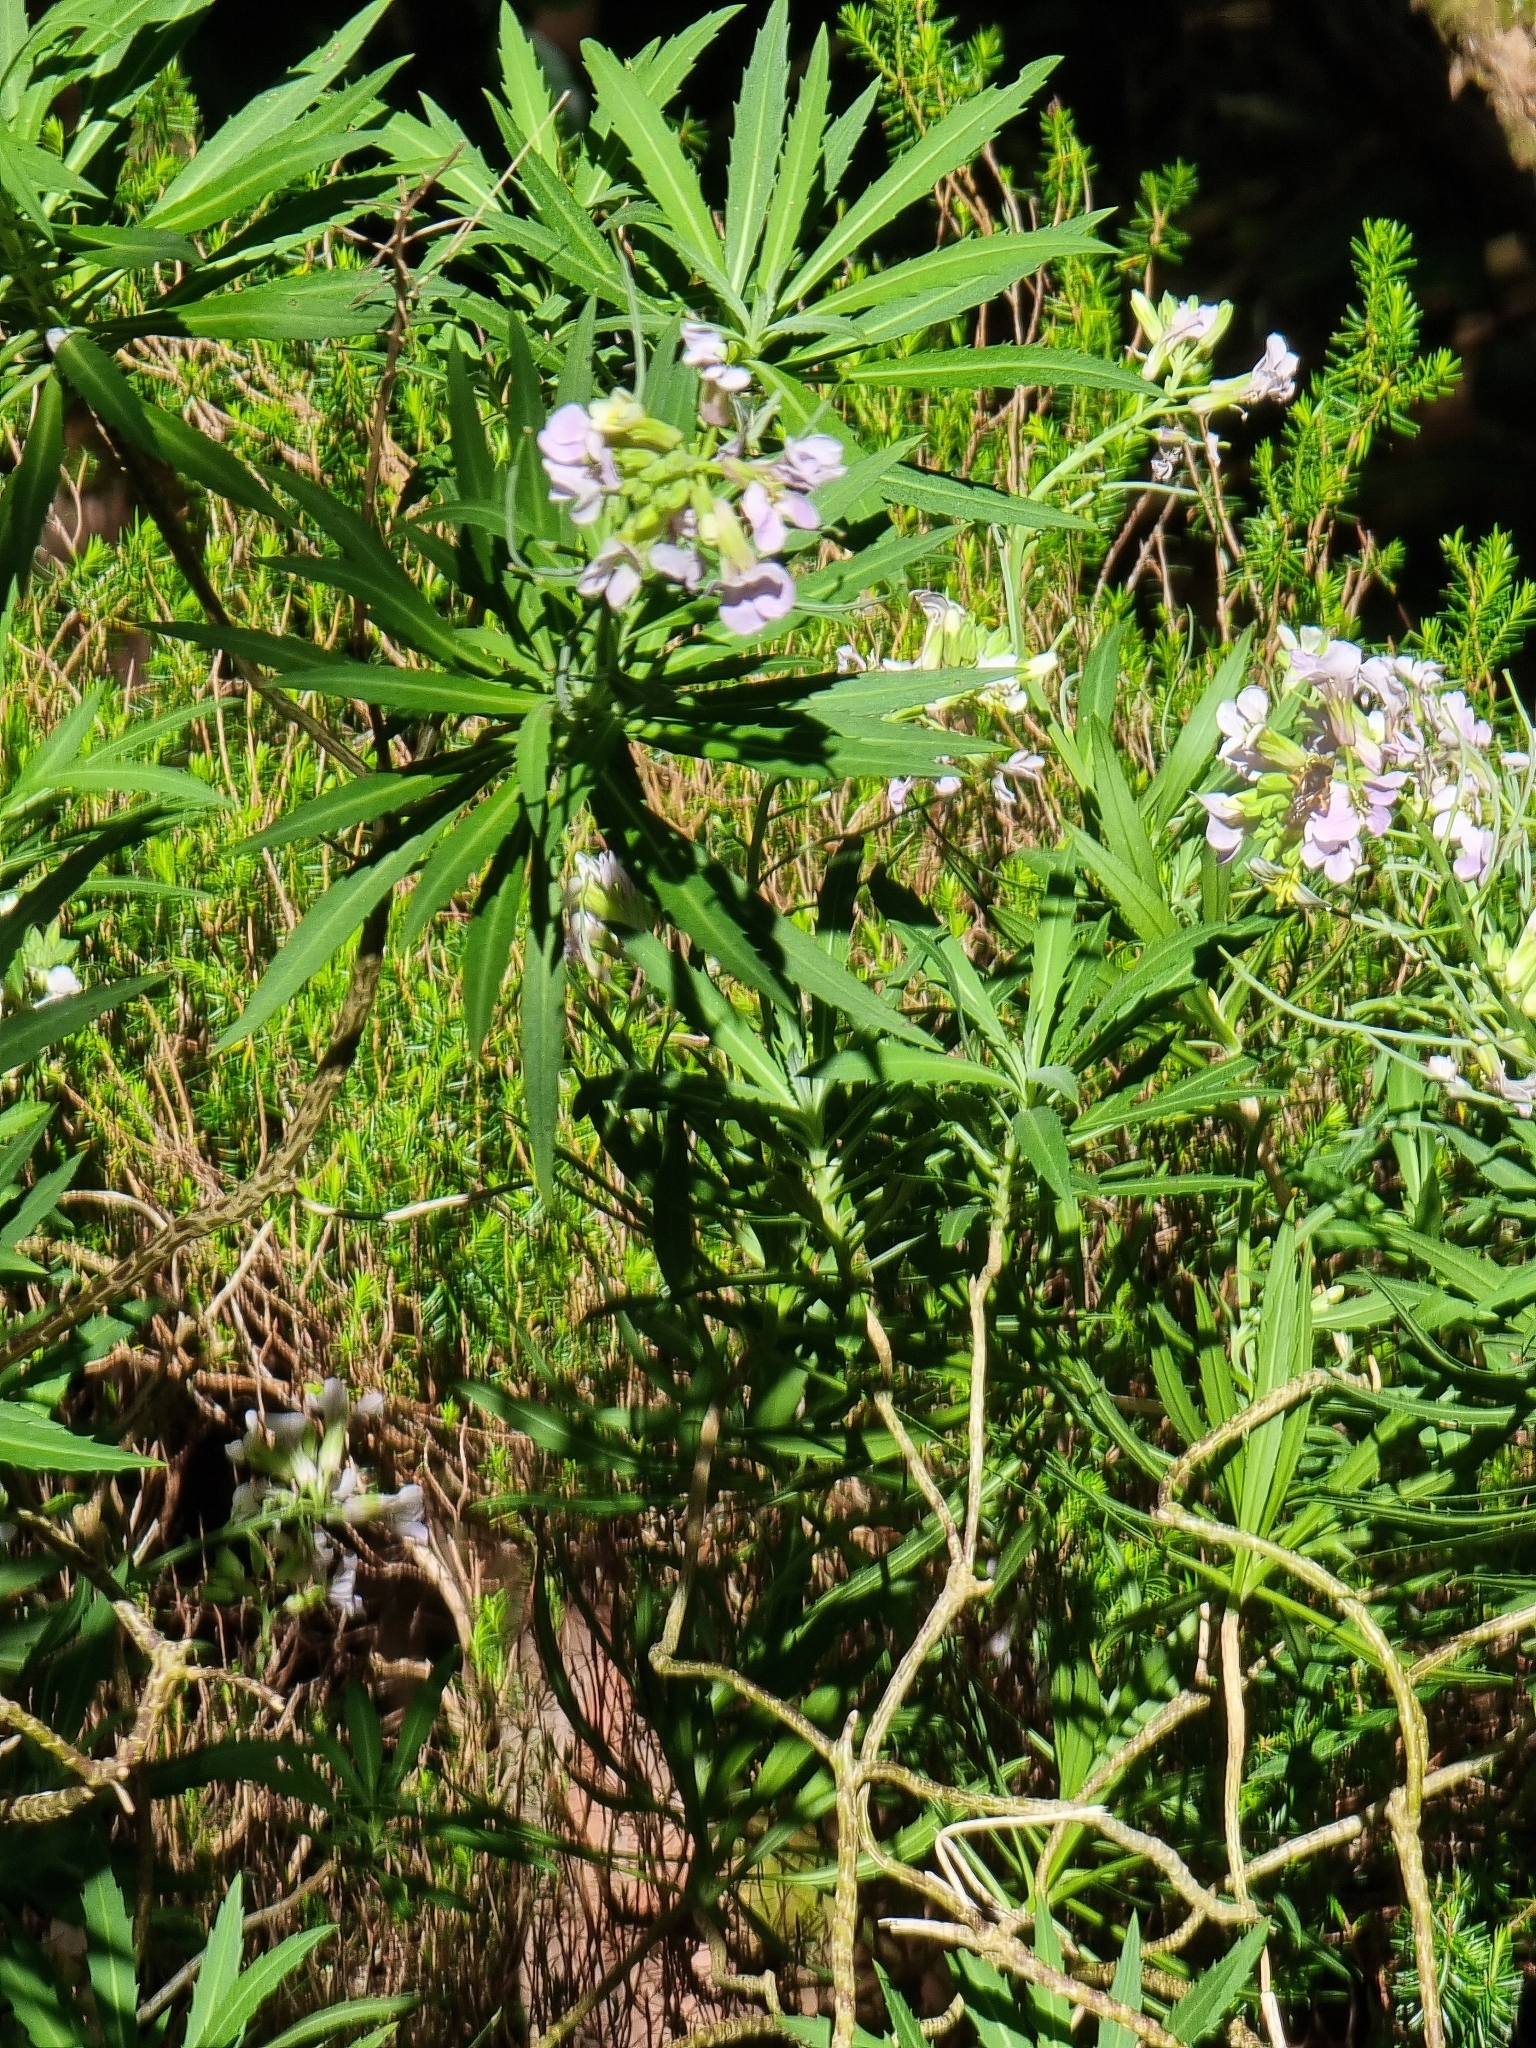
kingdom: Plantae
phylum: Tracheophyta
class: Magnoliopsida
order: Brassicales
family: Brassicaceae
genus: Erysimum
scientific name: Erysimum bicolor
